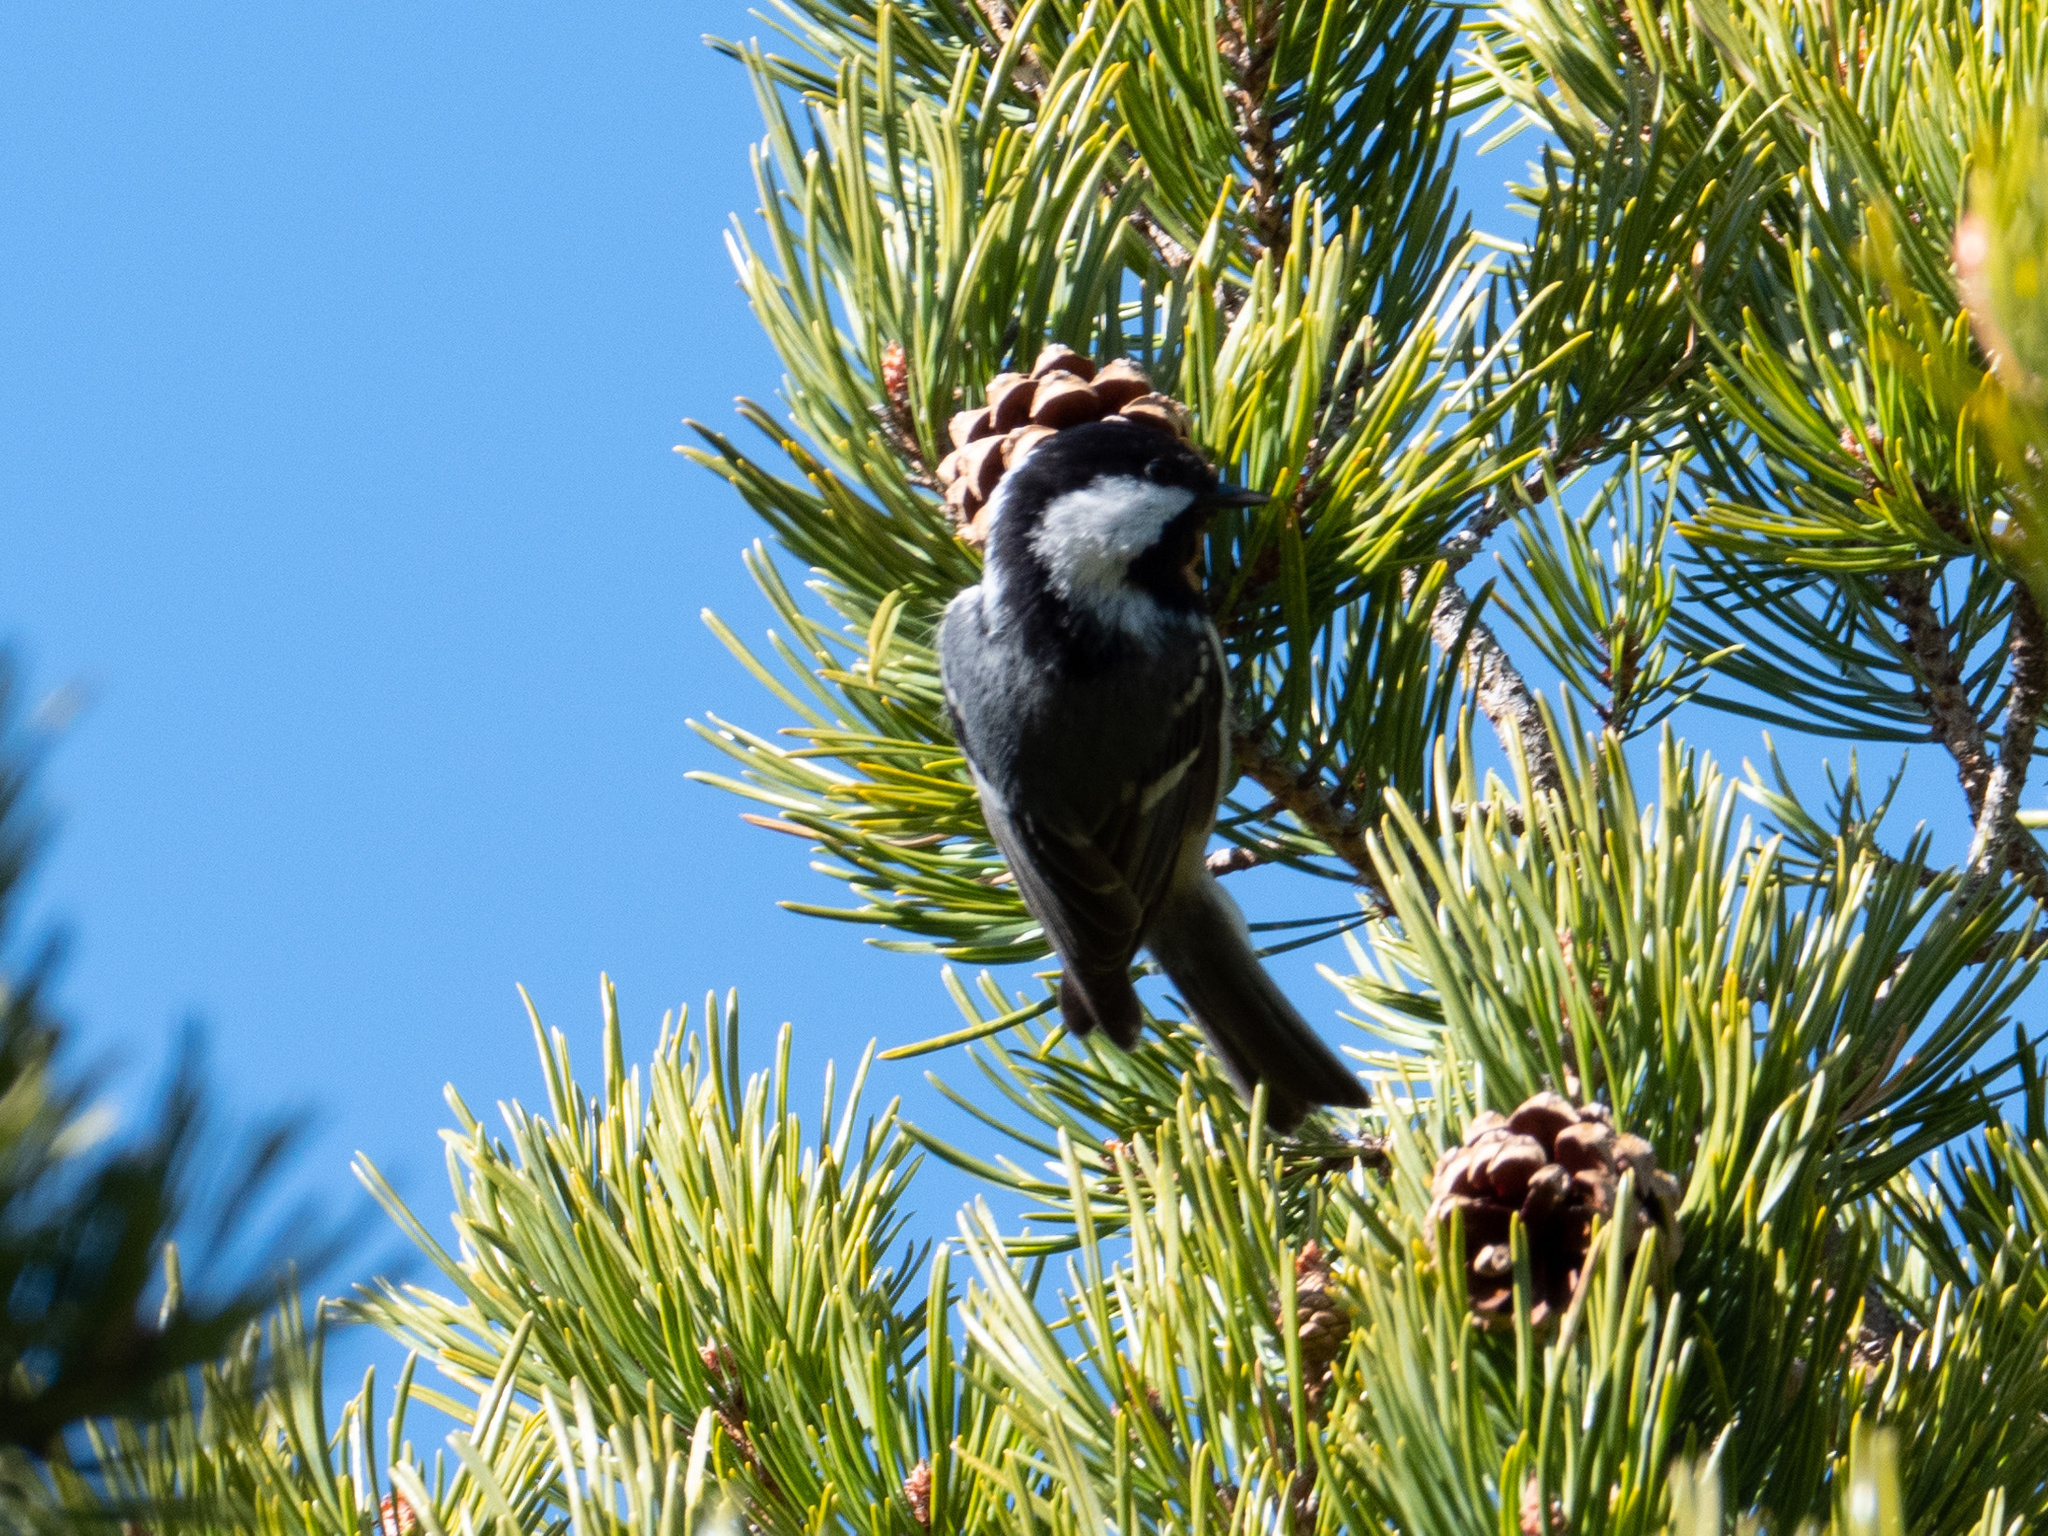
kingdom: Animalia
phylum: Chordata
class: Aves
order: Passeriformes
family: Paridae
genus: Periparus
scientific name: Periparus ater
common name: Coal tit
